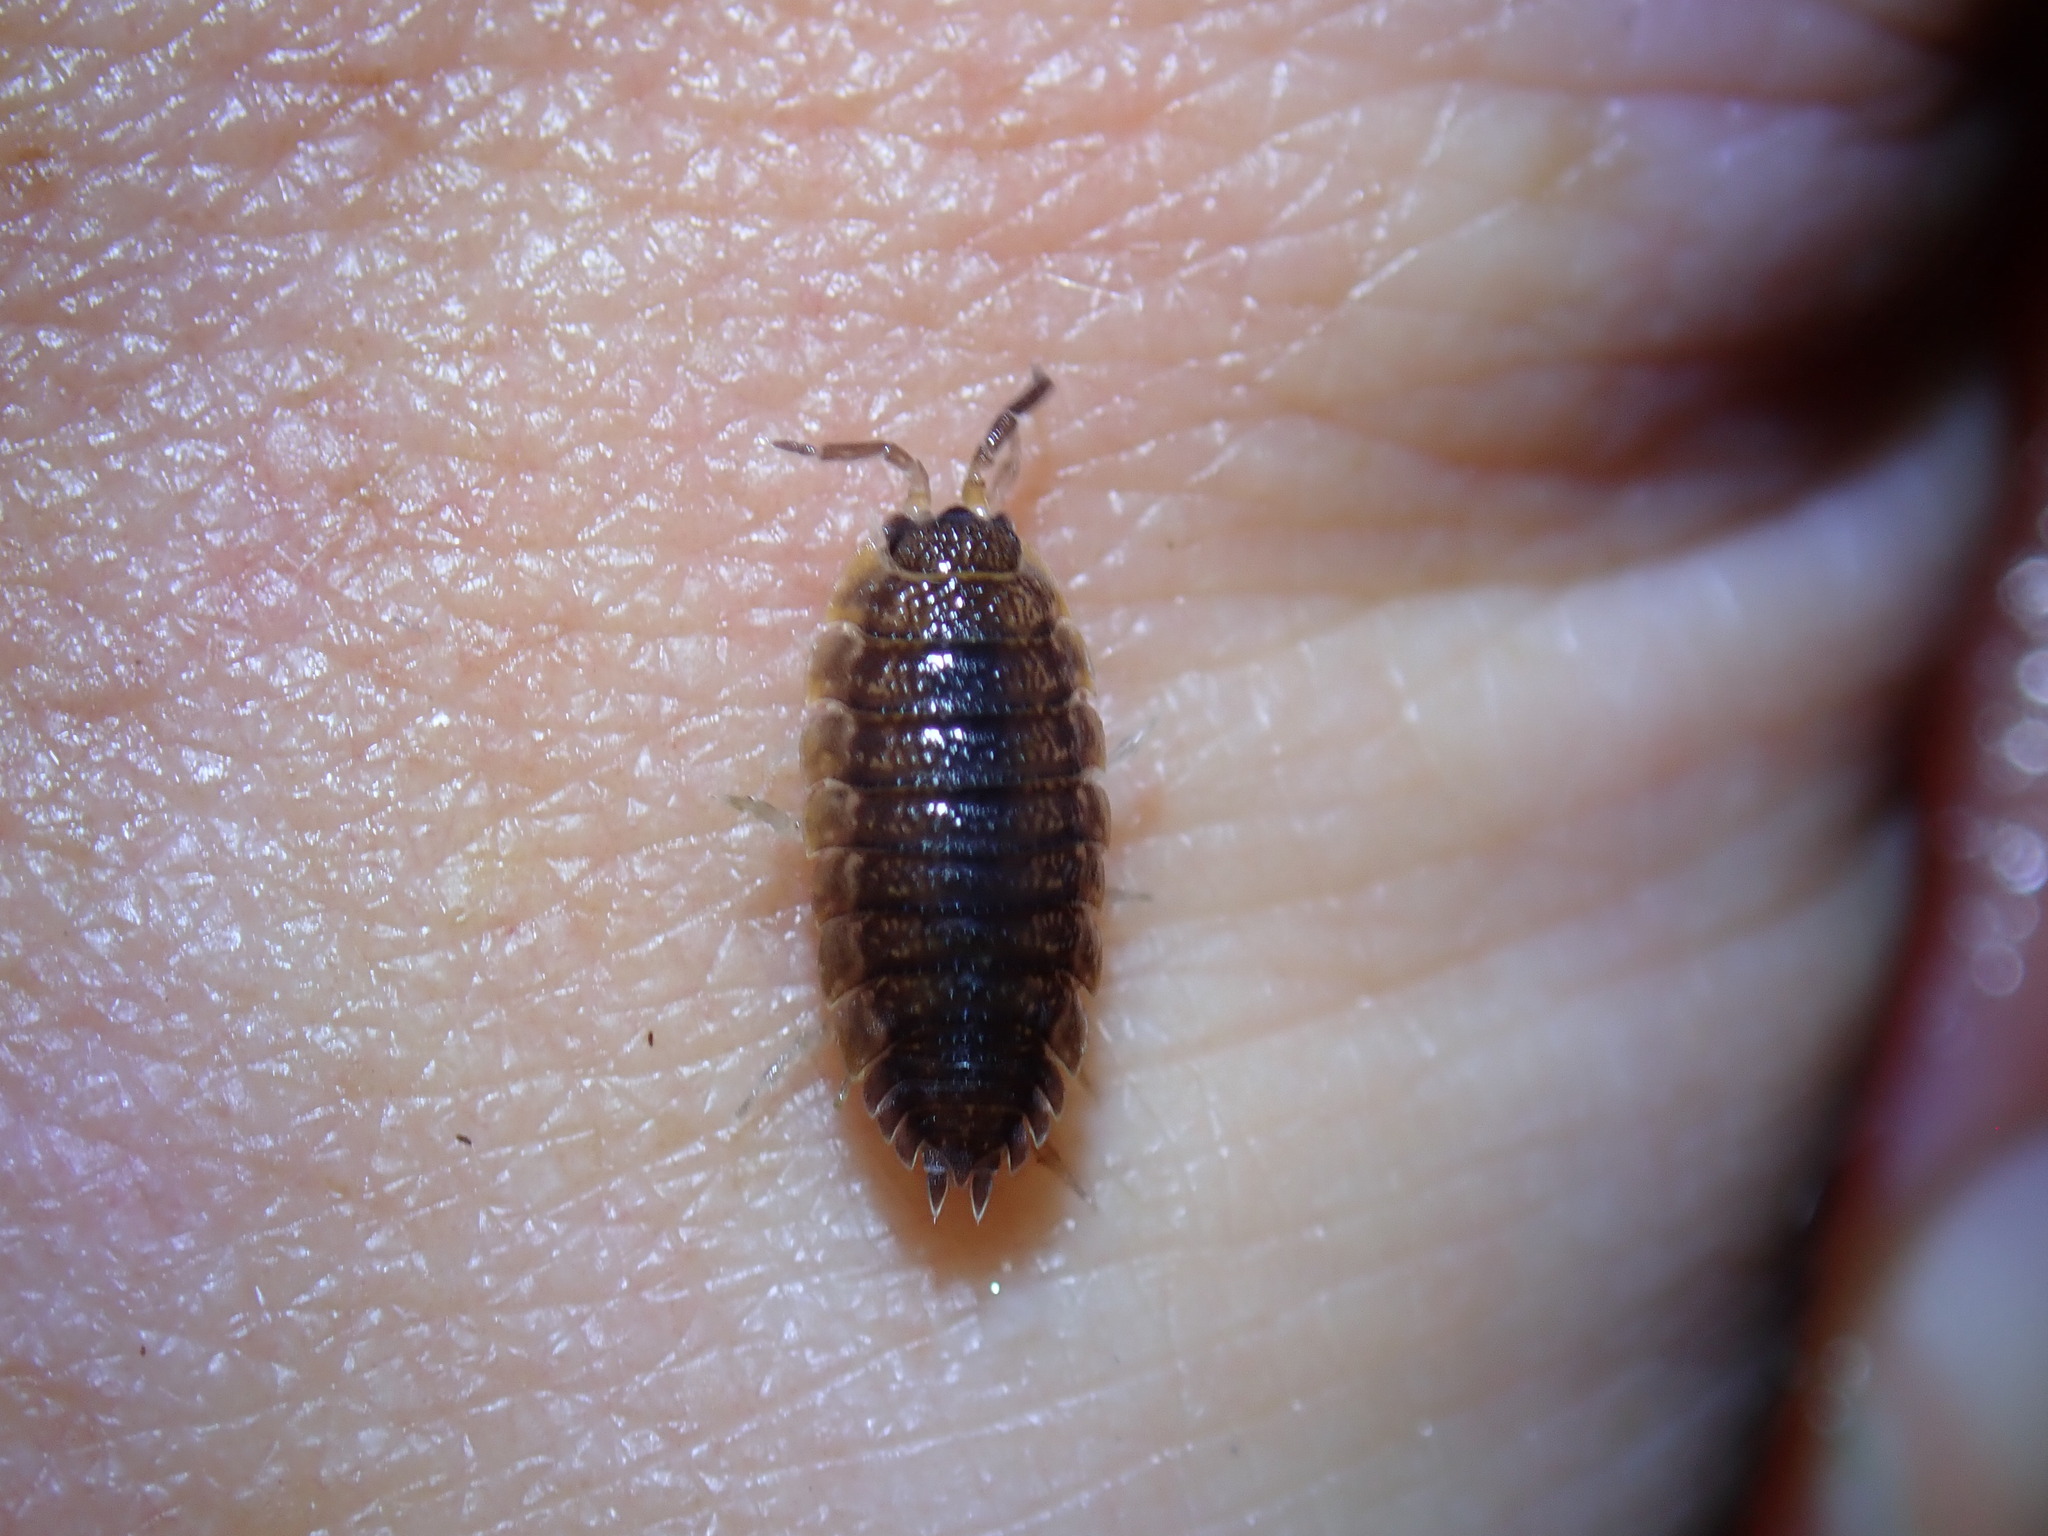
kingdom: Animalia
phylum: Arthropoda
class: Malacostraca
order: Isopoda
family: Porcellionidae
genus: Porcellio
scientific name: Porcellio scaber
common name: Common rough woodlouse
